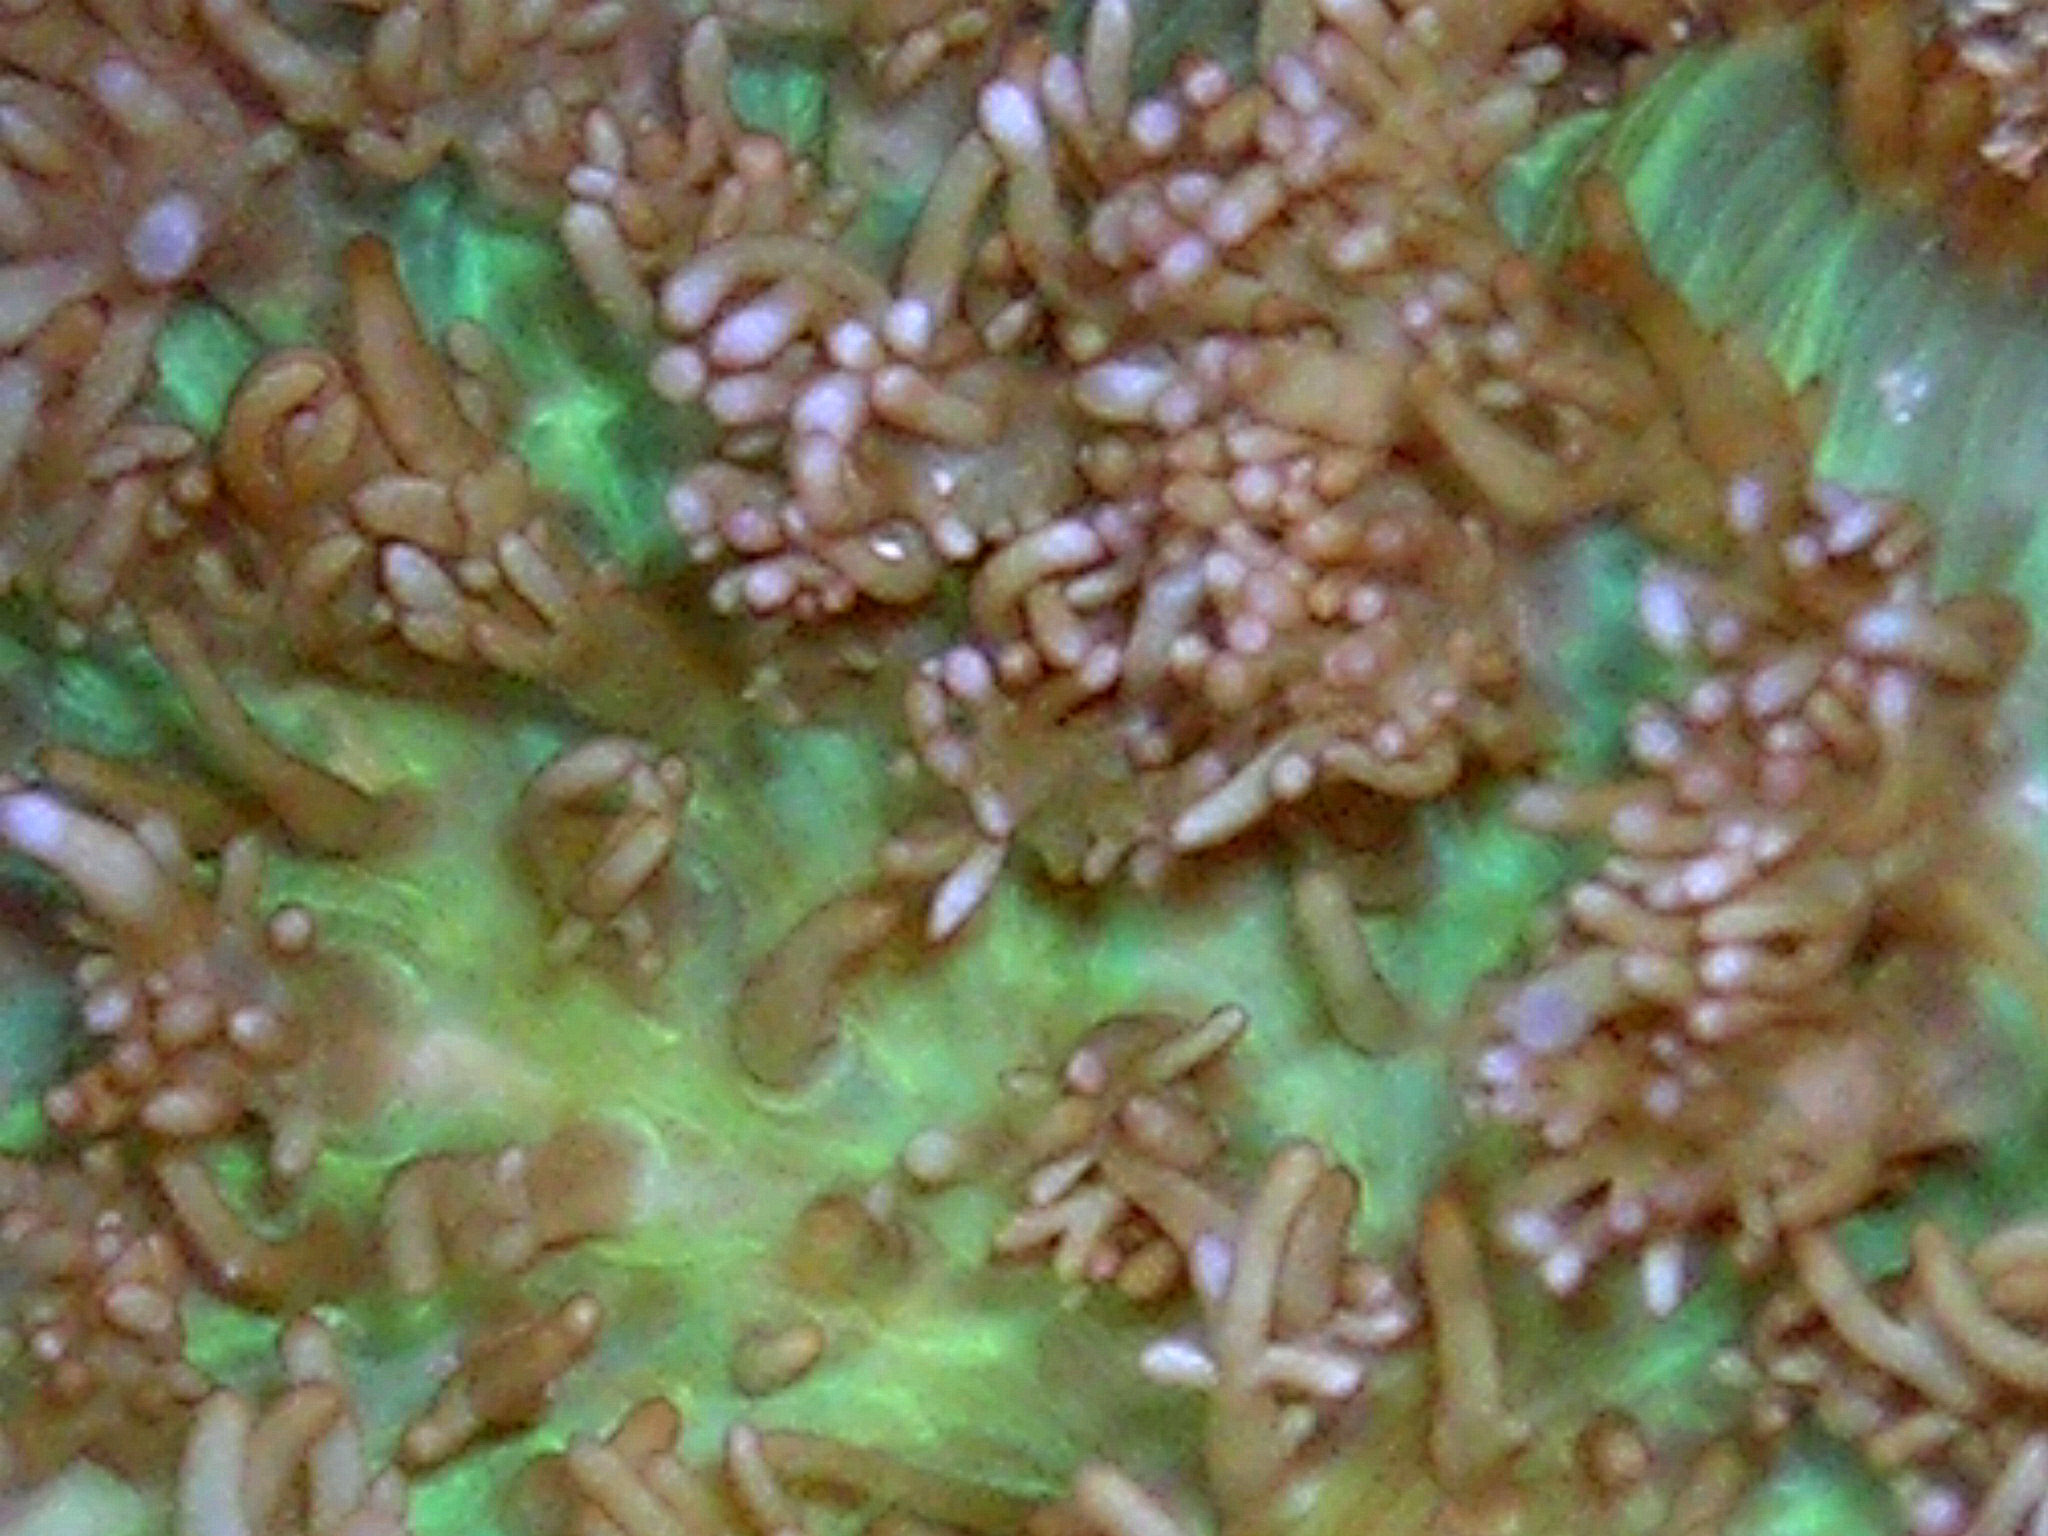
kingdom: Animalia
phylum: Cnidaria
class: Anthozoa
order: Corallimorpharia
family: Discosomidae
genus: Rhodactis
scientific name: Rhodactis rhodostoma
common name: Red-mouth mushroom anemone
